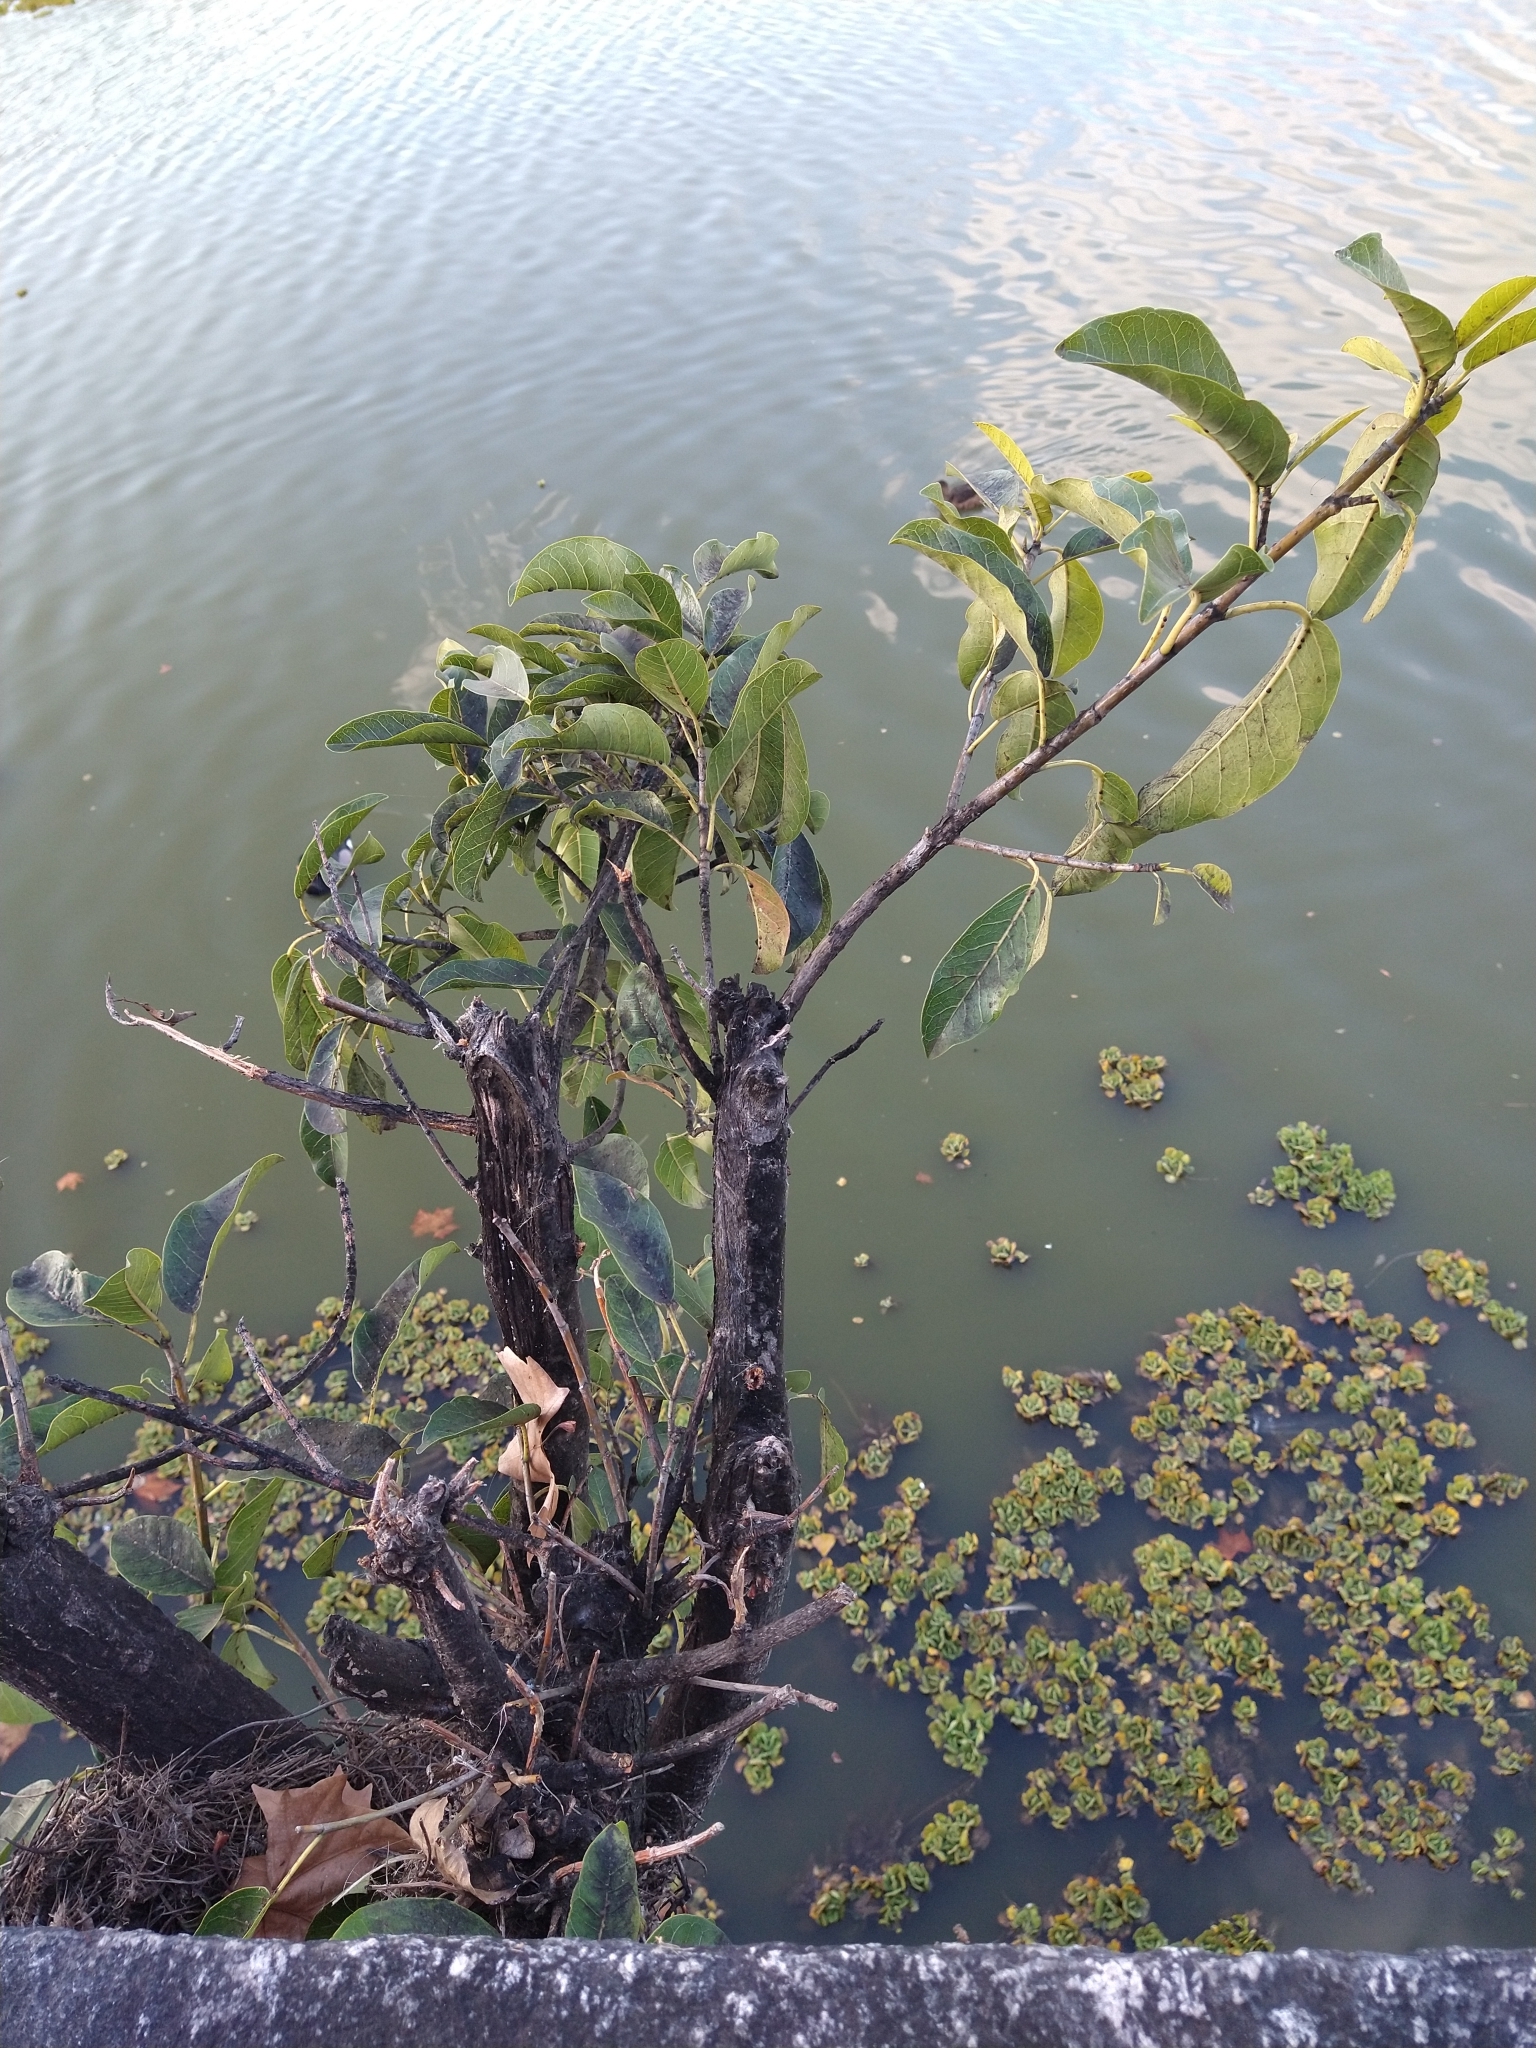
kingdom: Plantae
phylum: Tracheophyta
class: Magnoliopsida
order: Rosales
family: Moraceae
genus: Ficus
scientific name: Ficus luschnathiana
